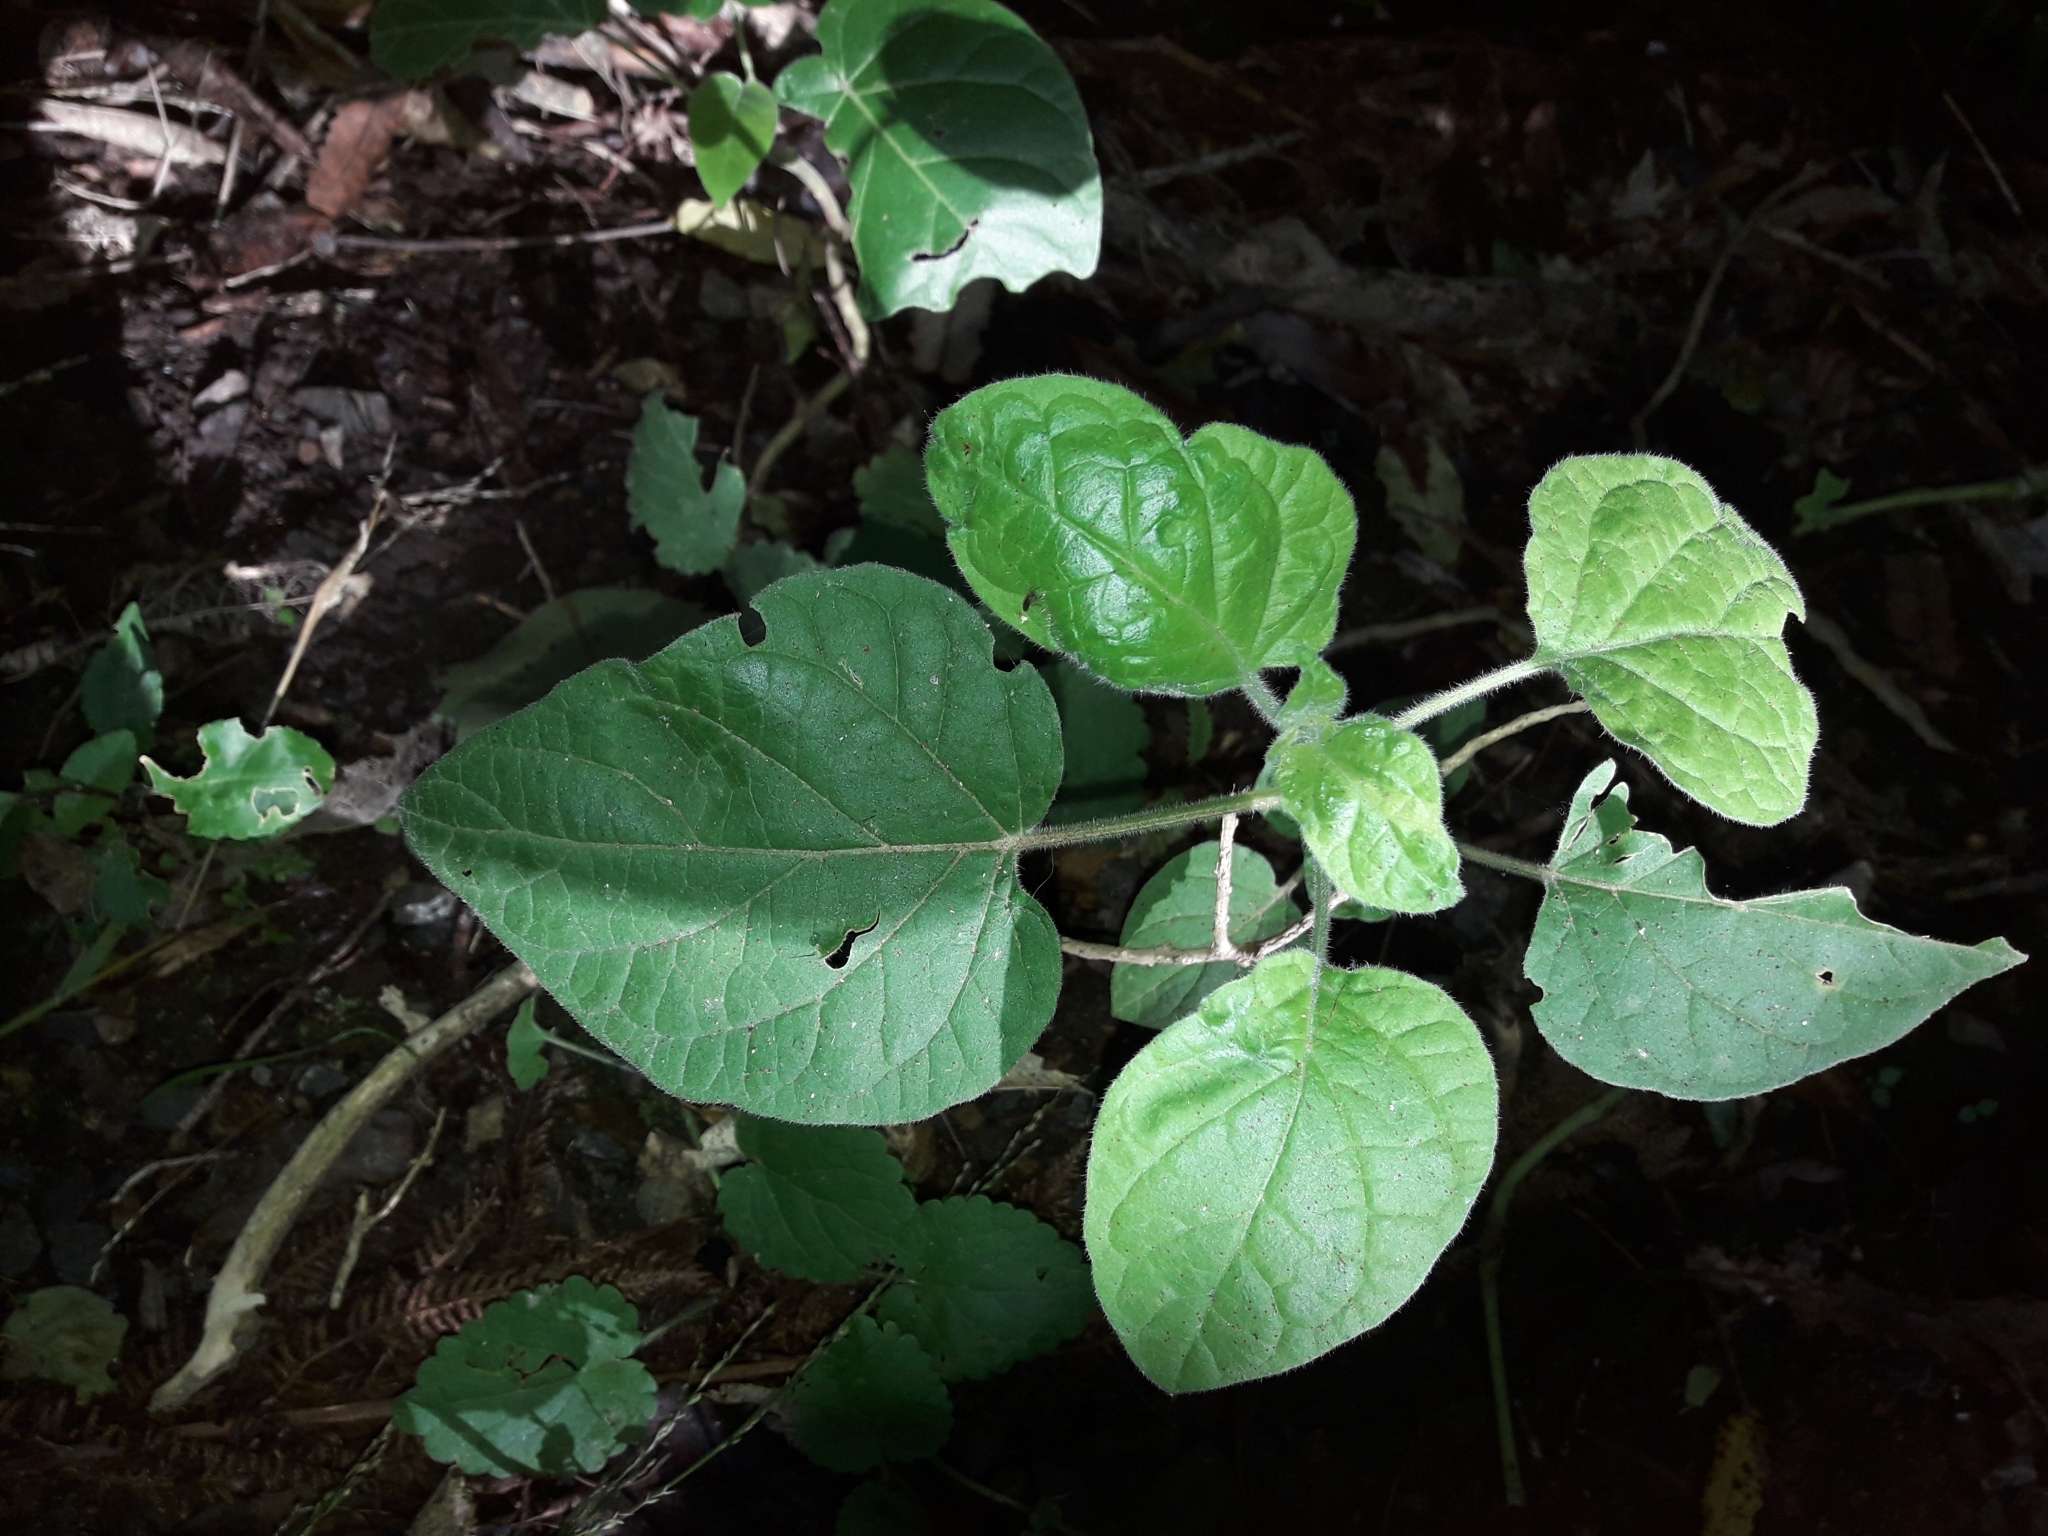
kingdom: Plantae
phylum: Tracheophyta
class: Magnoliopsida
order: Solanales
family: Solanaceae
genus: Solanum
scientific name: Solanum betaceum
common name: Tamarillo
